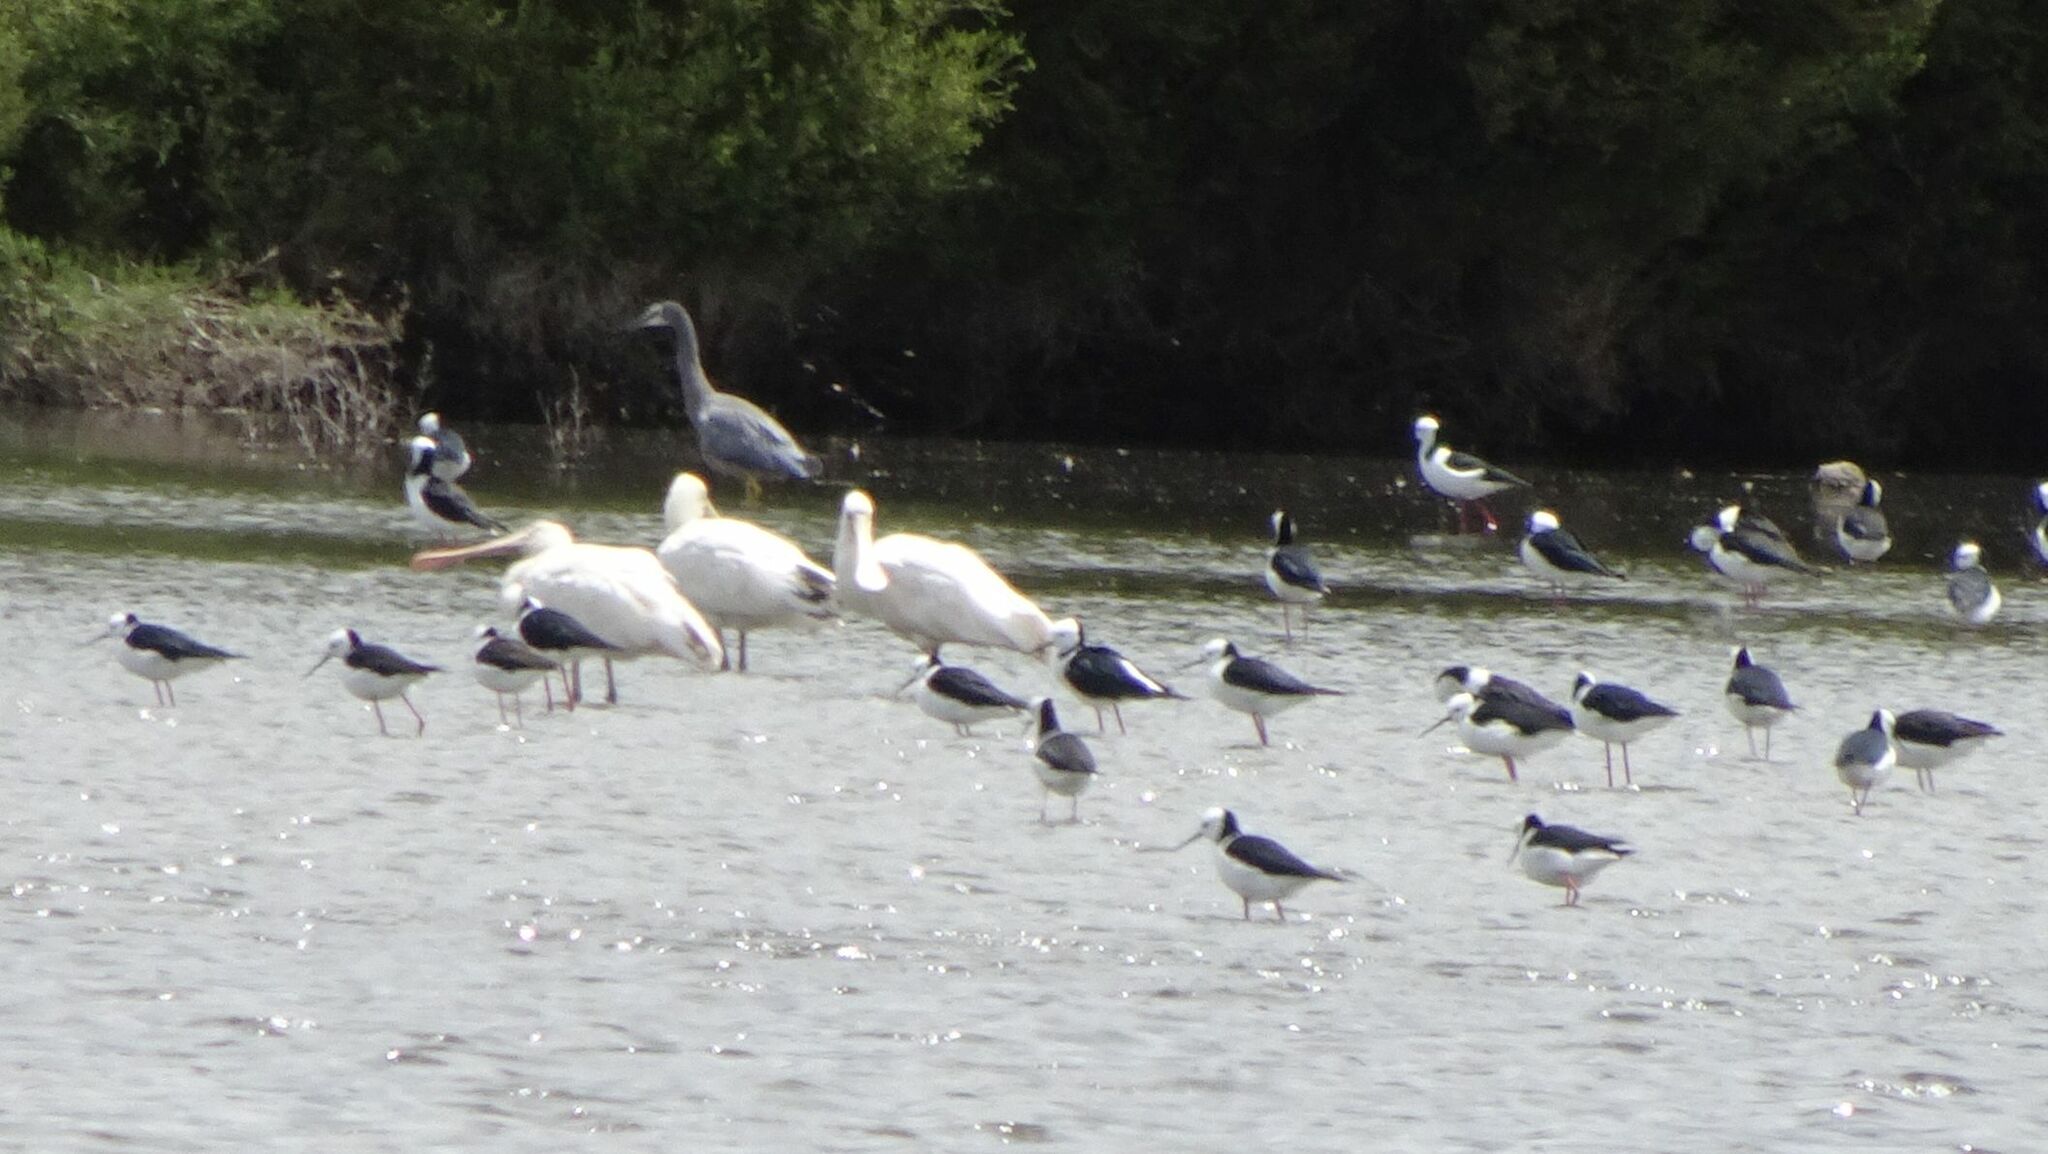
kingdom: Animalia
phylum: Chordata
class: Aves
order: Pelecaniformes
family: Threskiornithidae
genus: Platalea
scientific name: Platalea flavipes
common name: Yellow-billed spoonbill
